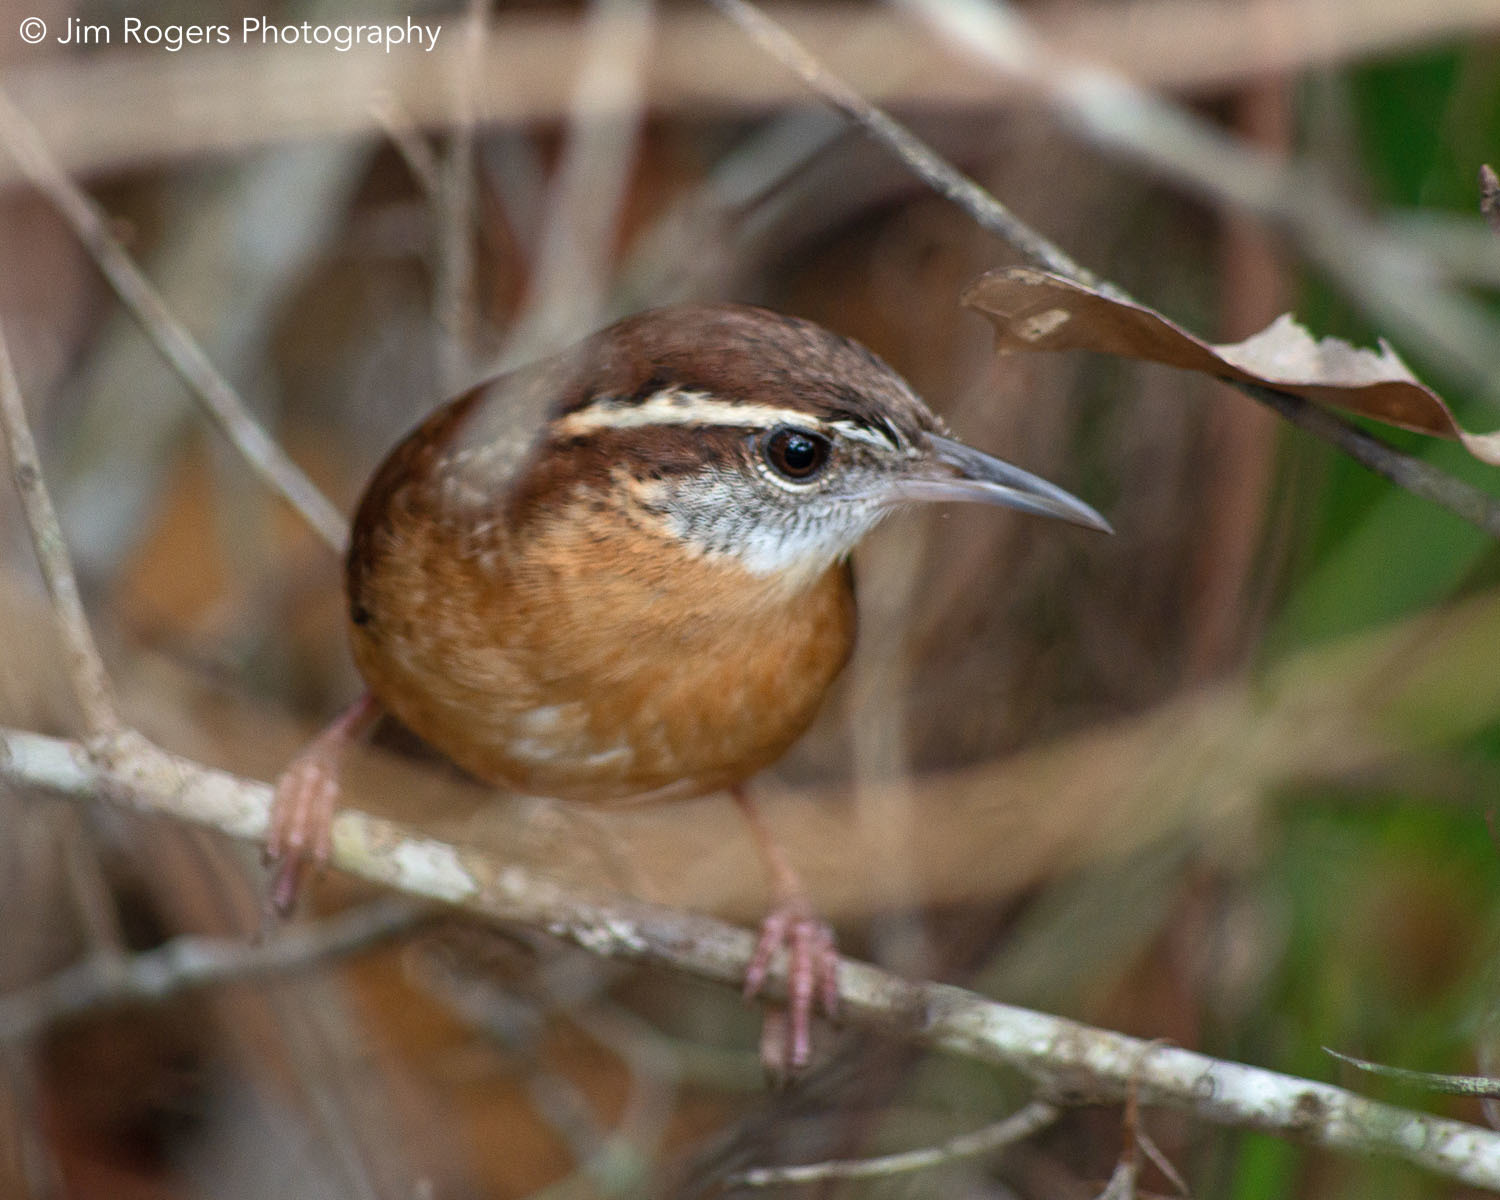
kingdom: Animalia
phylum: Chordata
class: Aves
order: Passeriformes
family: Troglodytidae
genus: Thryothorus
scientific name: Thryothorus ludovicianus
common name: Carolina wren
